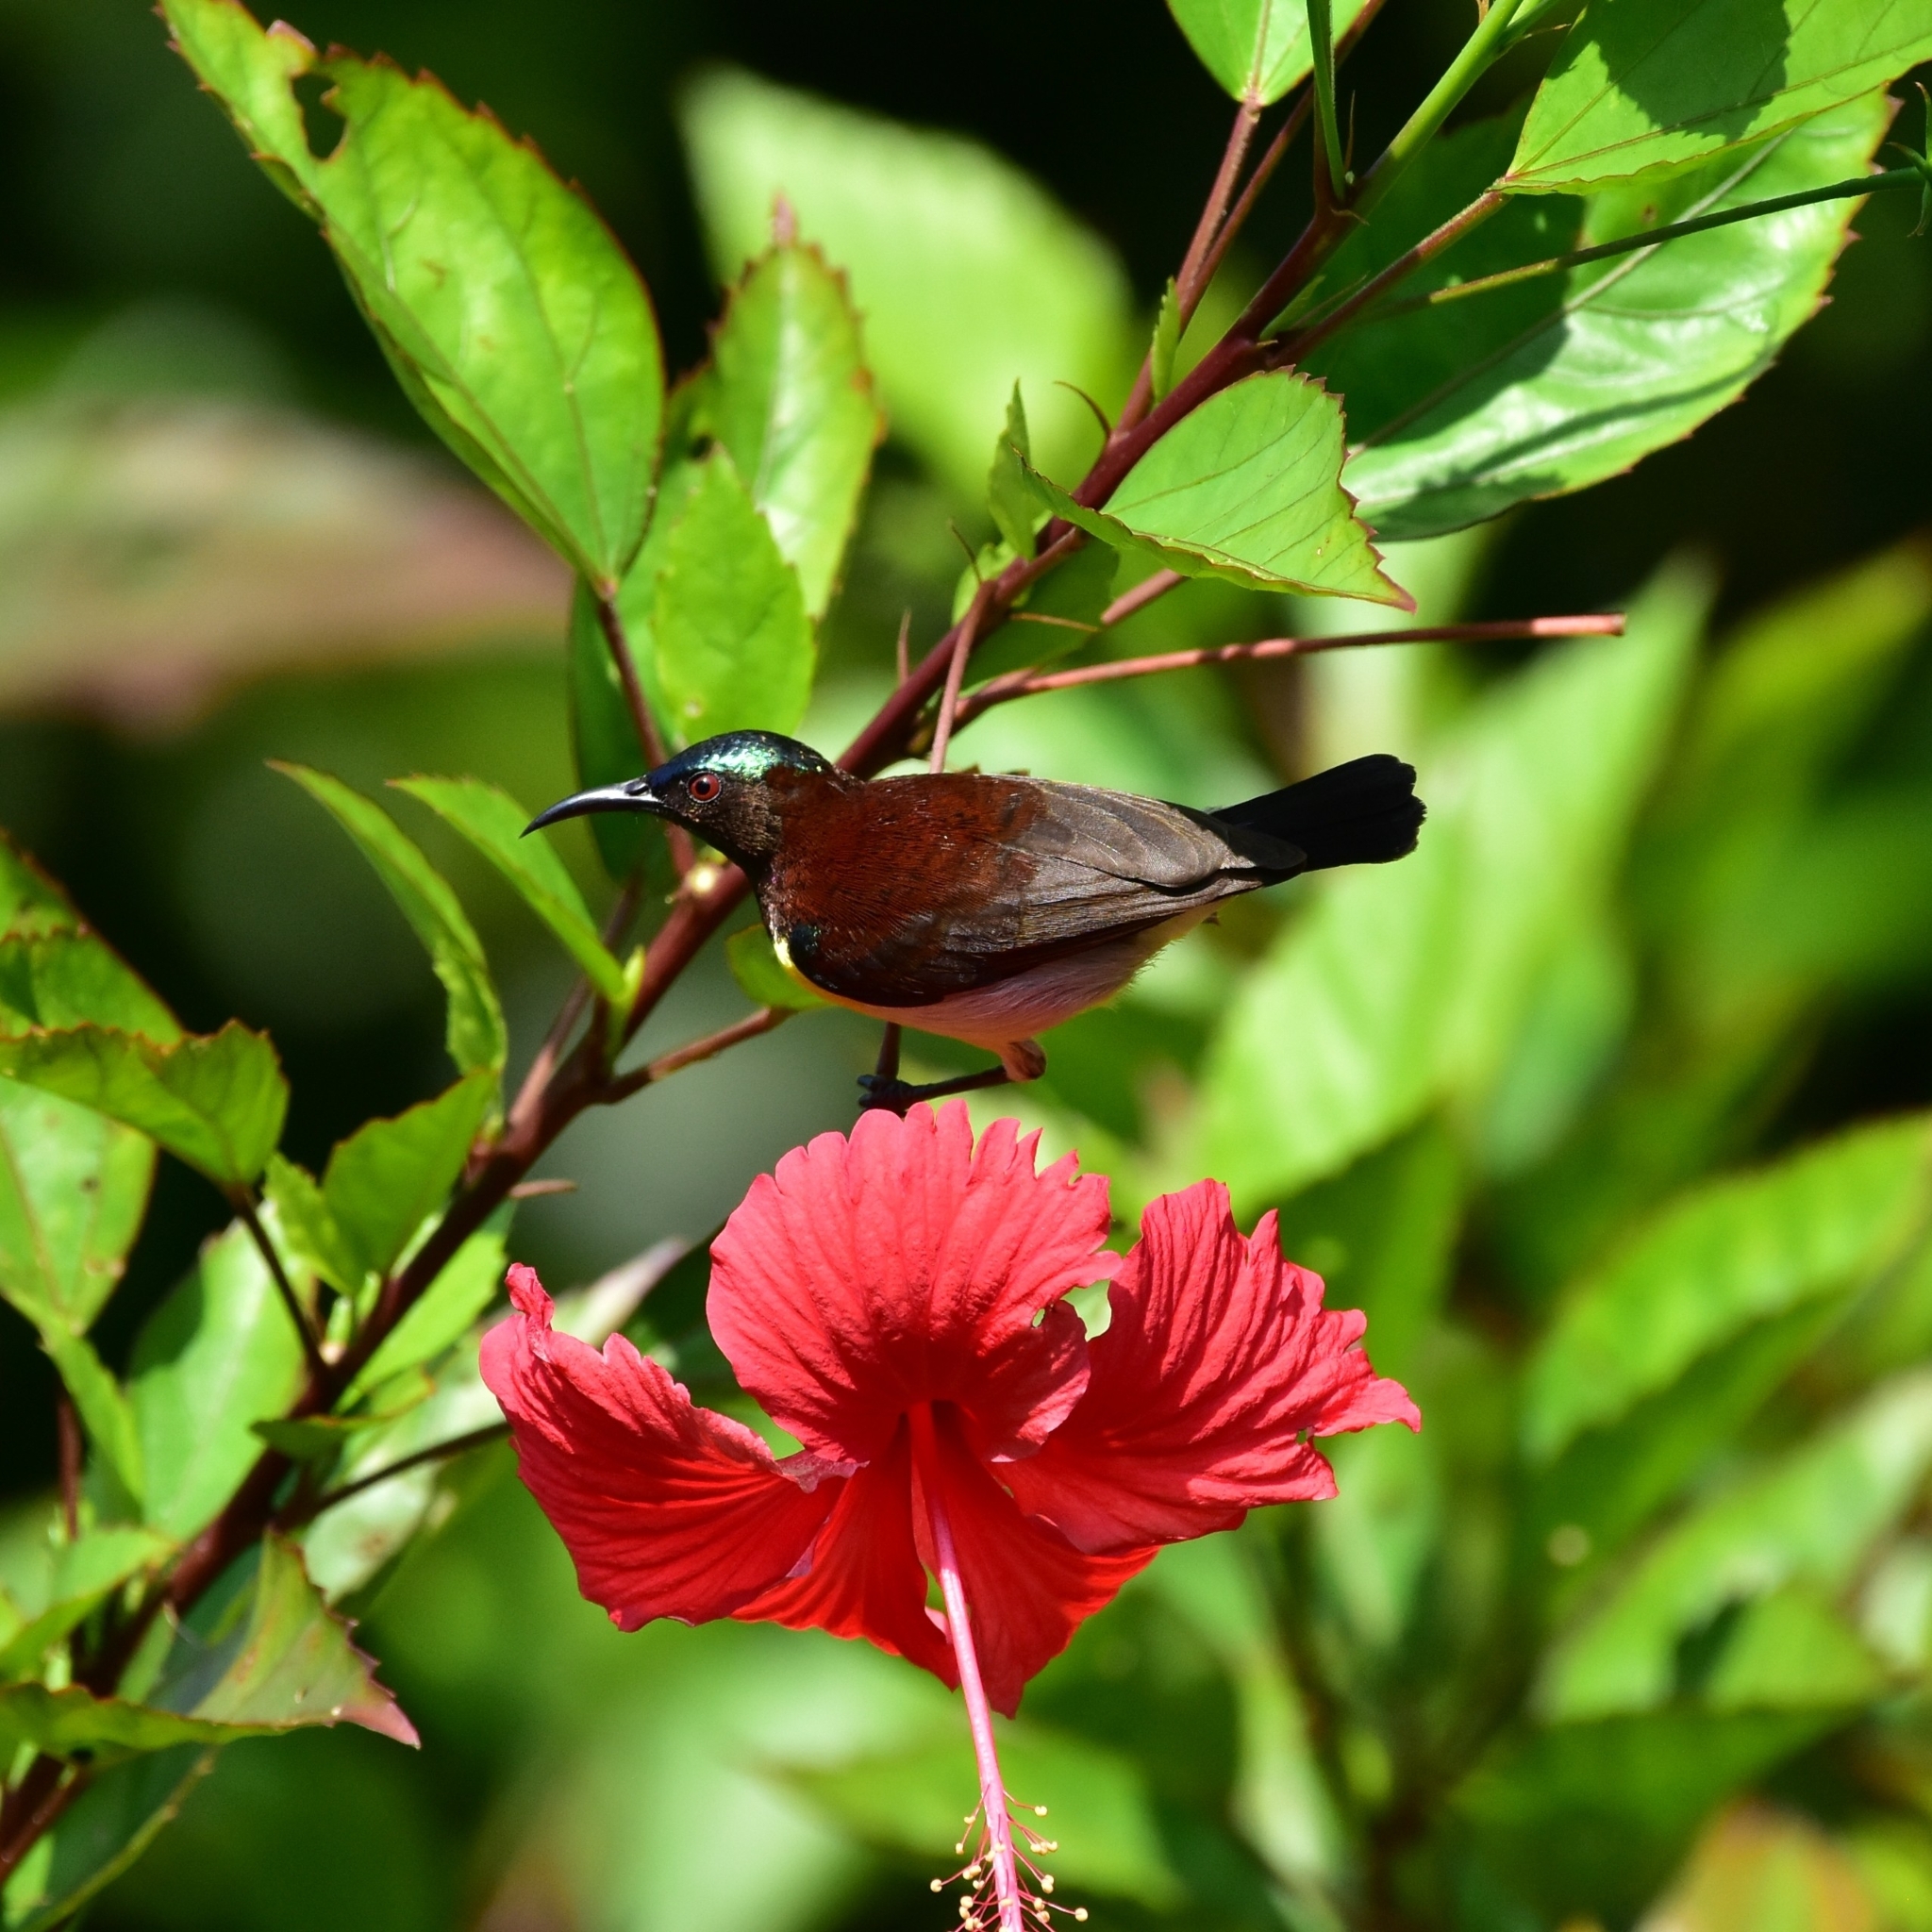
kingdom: Animalia
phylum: Chordata
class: Aves
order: Passeriformes
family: Nectariniidae
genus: Leptocoma
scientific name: Leptocoma zeylonica
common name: Purple-rumped sunbird
